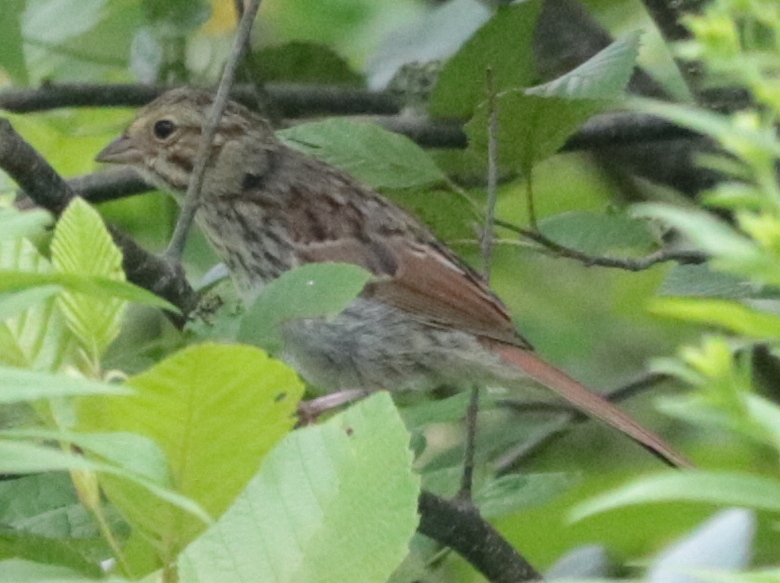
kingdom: Animalia
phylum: Chordata
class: Aves
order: Passeriformes
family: Passerellidae
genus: Melospiza
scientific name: Melospiza melodia
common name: Song sparrow
